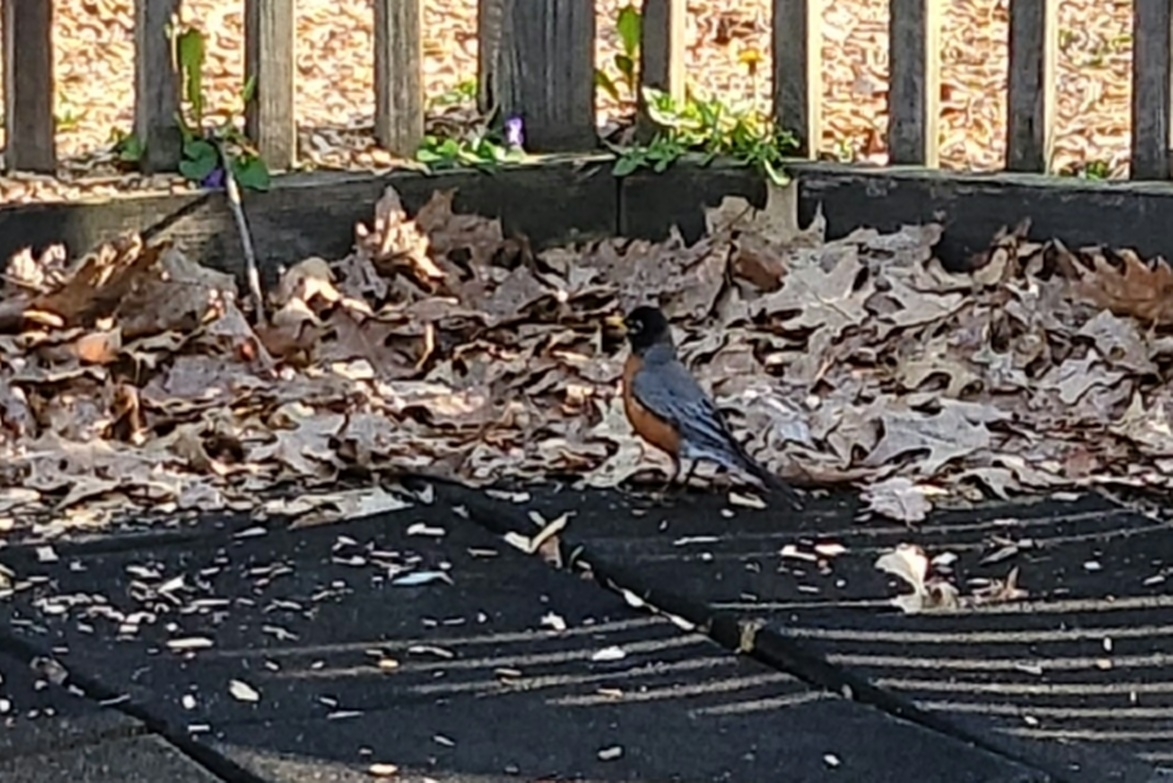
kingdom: Animalia
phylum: Chordata
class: Aves
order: Passeriformes
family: Turdidae
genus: Turdus
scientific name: Turdus migratorius
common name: American robin
